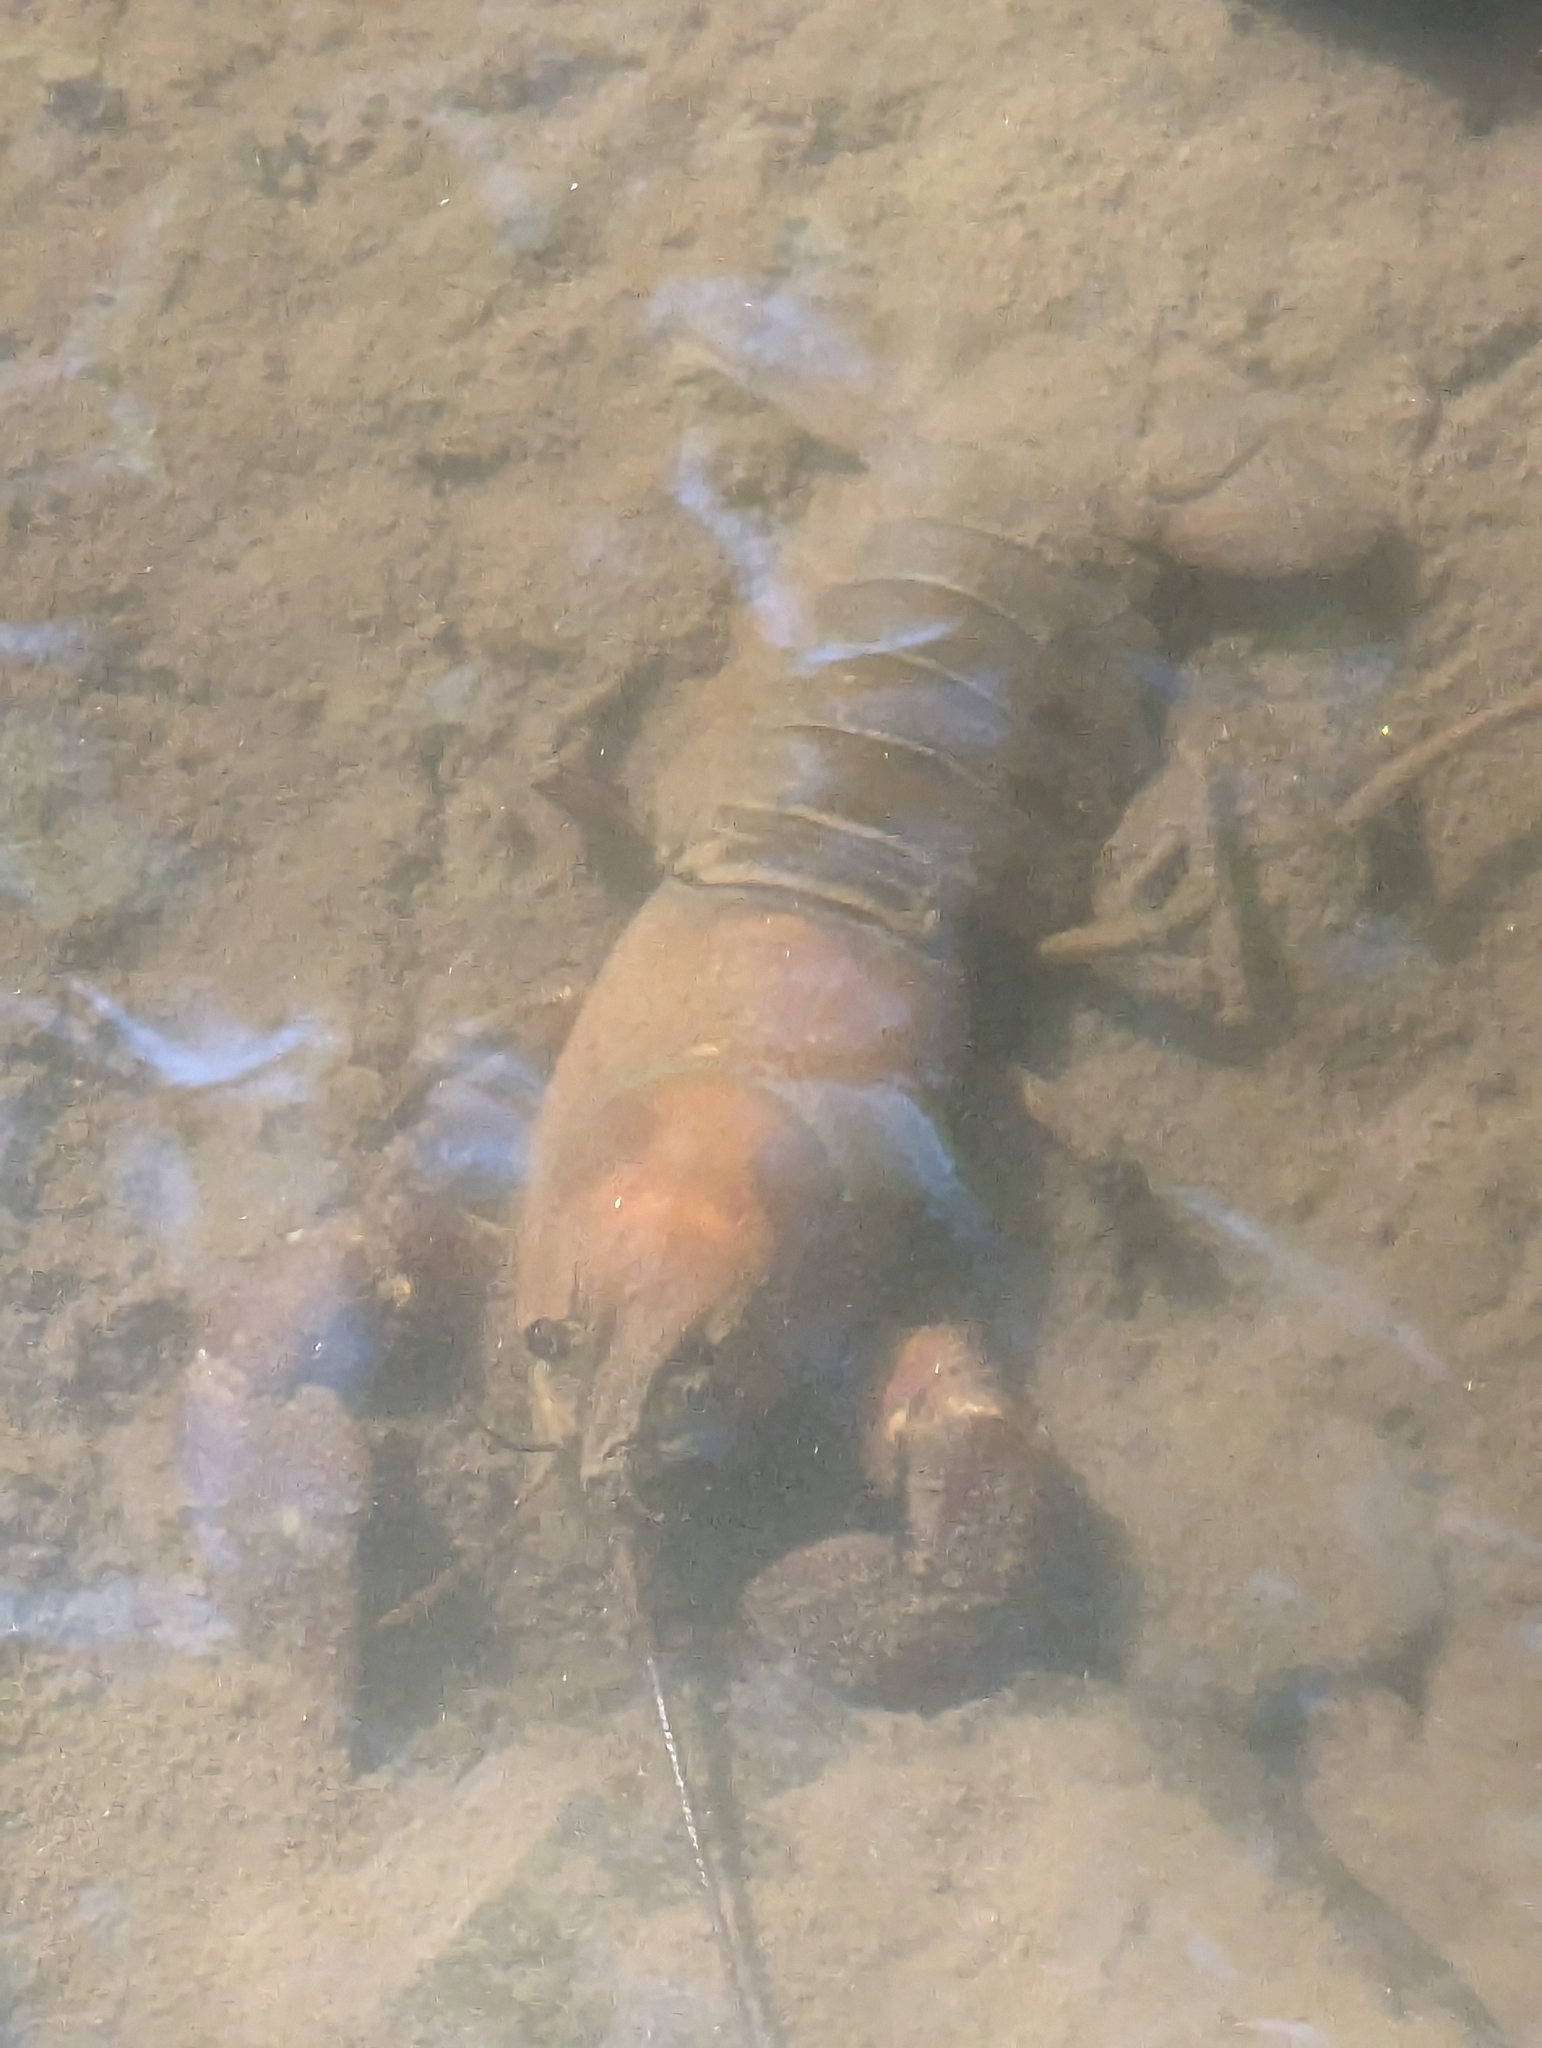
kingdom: Animalia
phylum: Arthropoda
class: Malacostraca
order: Decapoda
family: Astacidae
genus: Pacifastacus
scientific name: Pacifastacus leniusculus
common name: Signal crayfish
